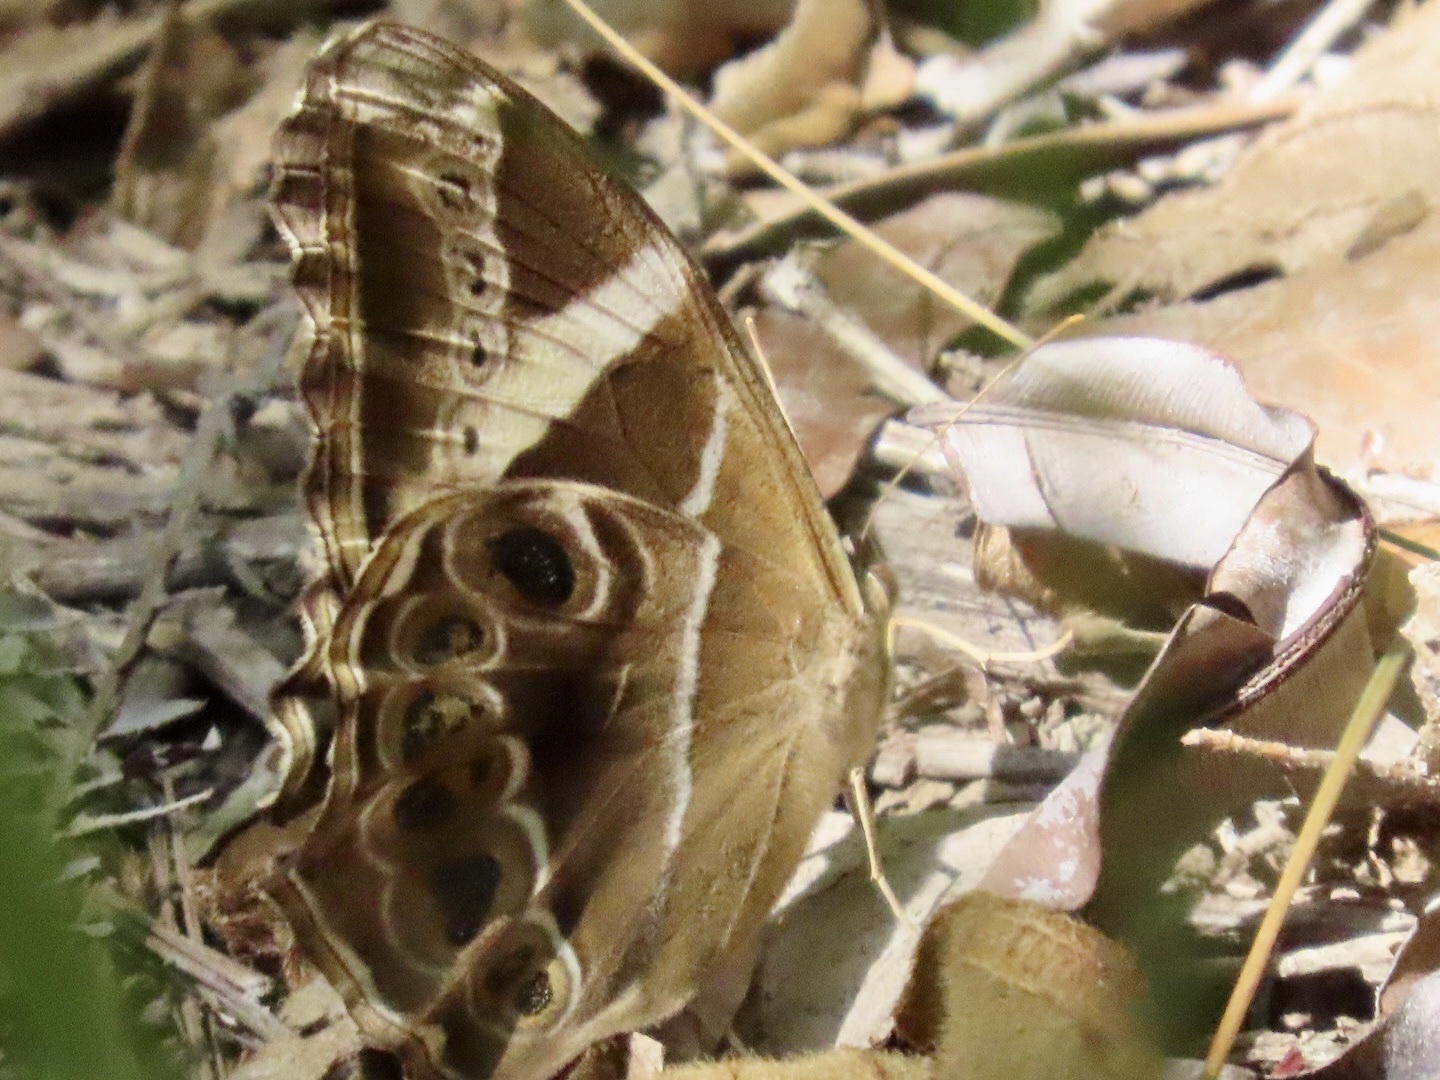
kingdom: Animalia
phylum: Arthropoda
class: Insecta
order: Lepidoptera
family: Nymphalidae
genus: Lethe
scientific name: Lethe europa
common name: Bamboo treebrown
